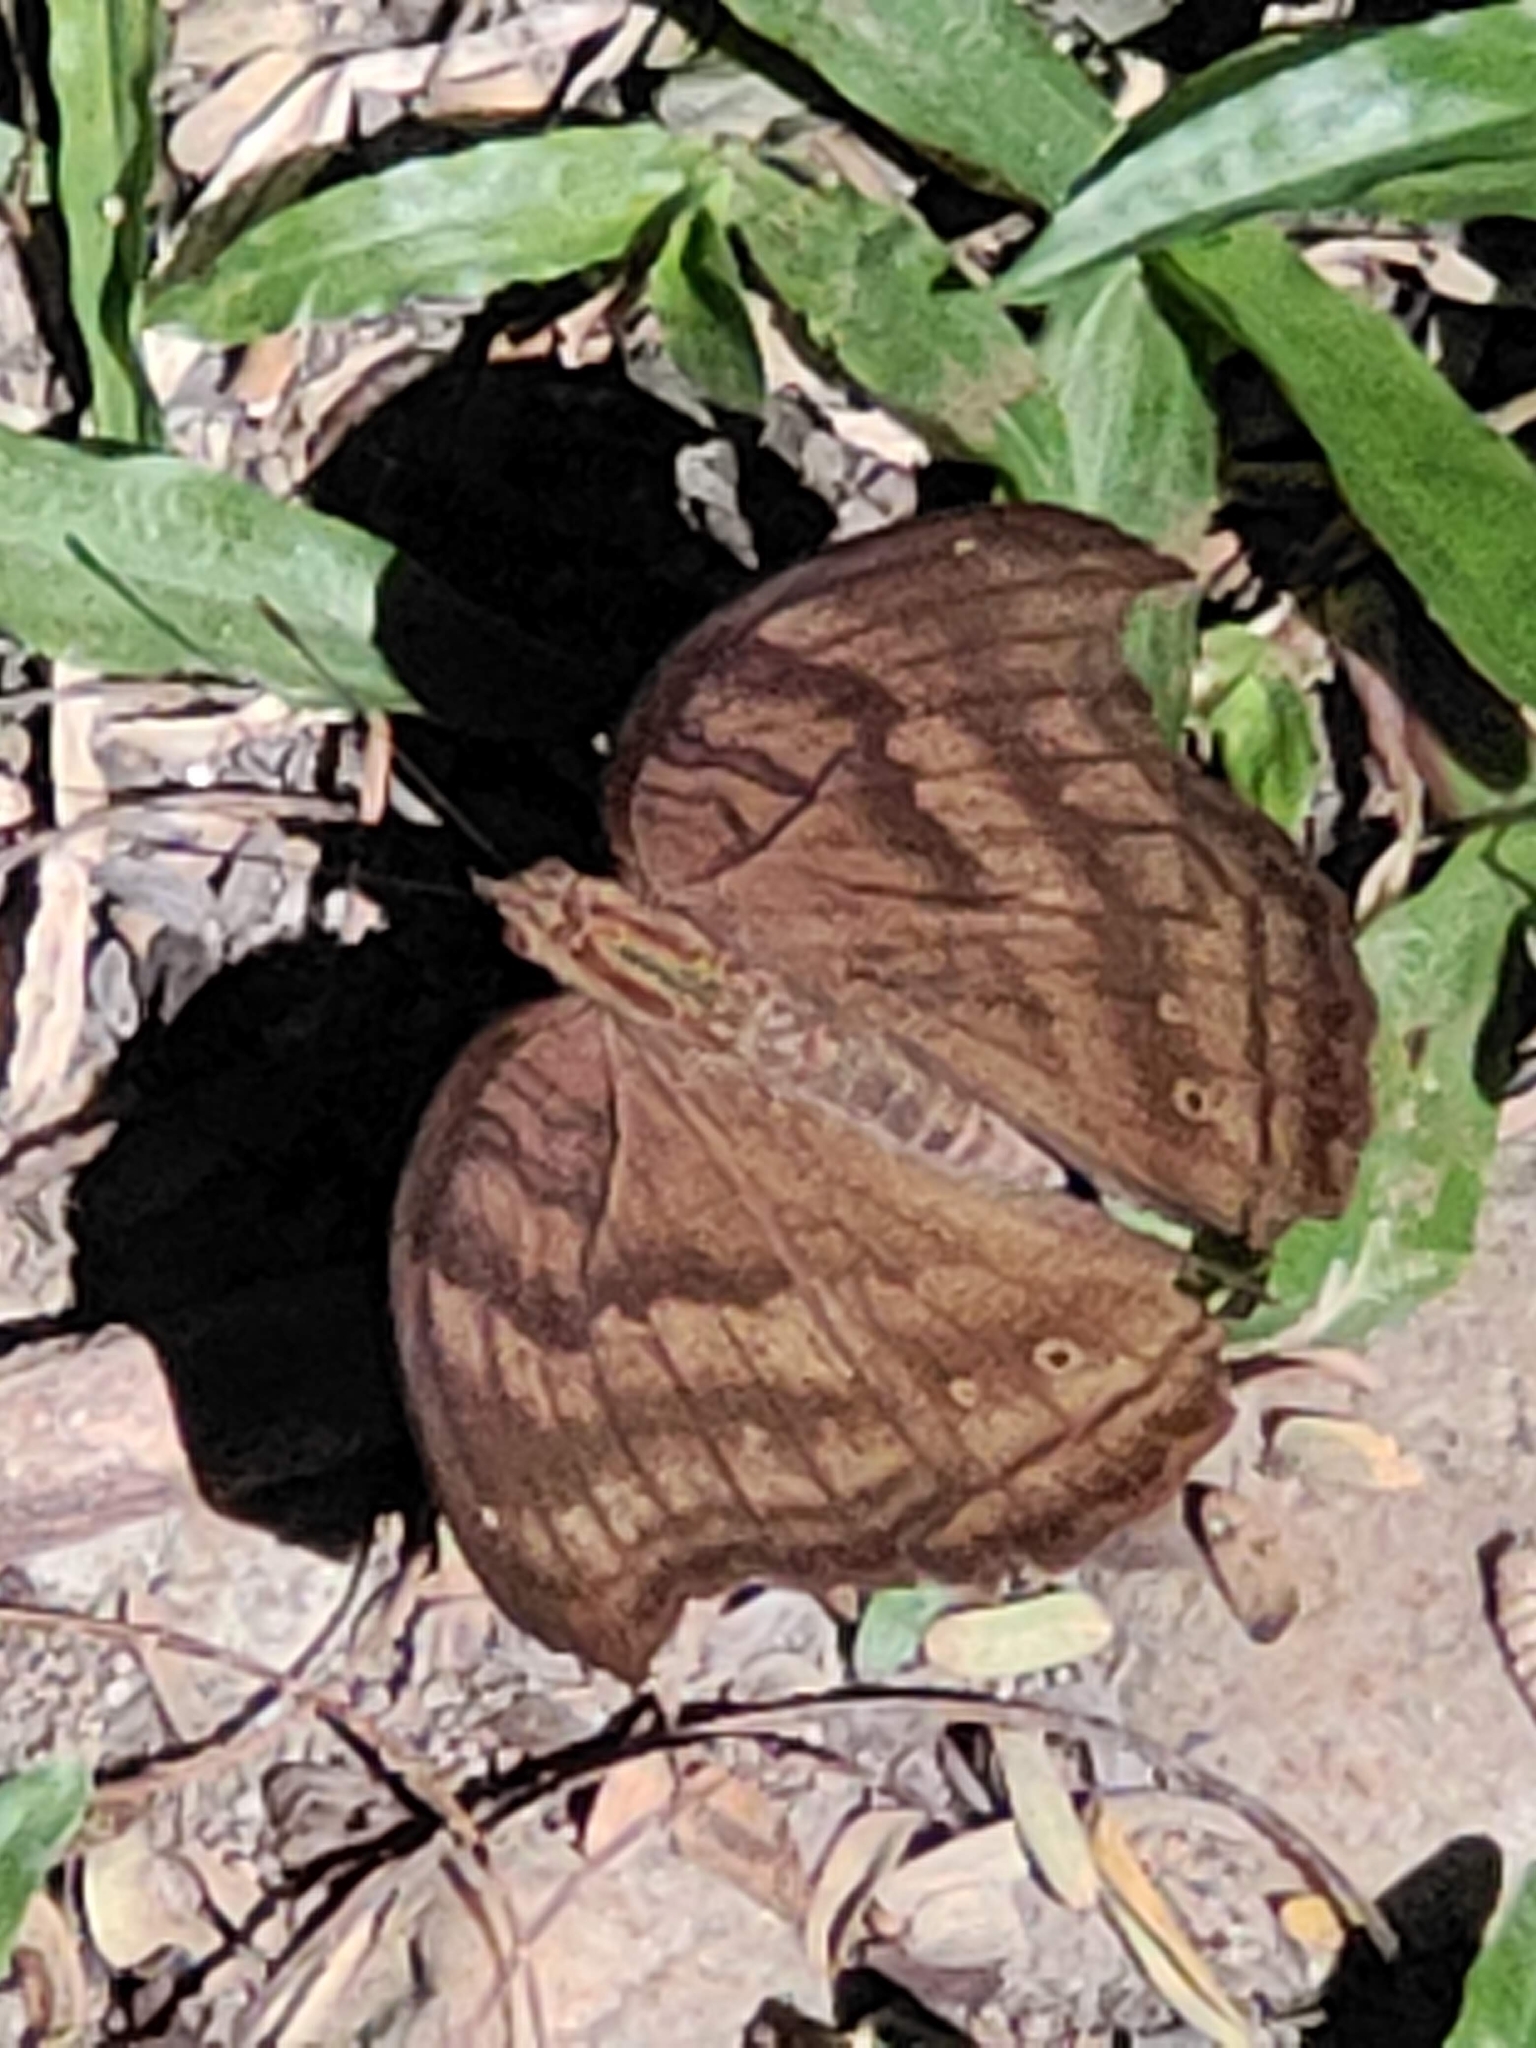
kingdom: Animalia
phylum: Arthropoda
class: Insecta
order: Lepidoptera
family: Nymphalidae
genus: Junonia
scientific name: Junonia iphita
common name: Chocolate pansy
